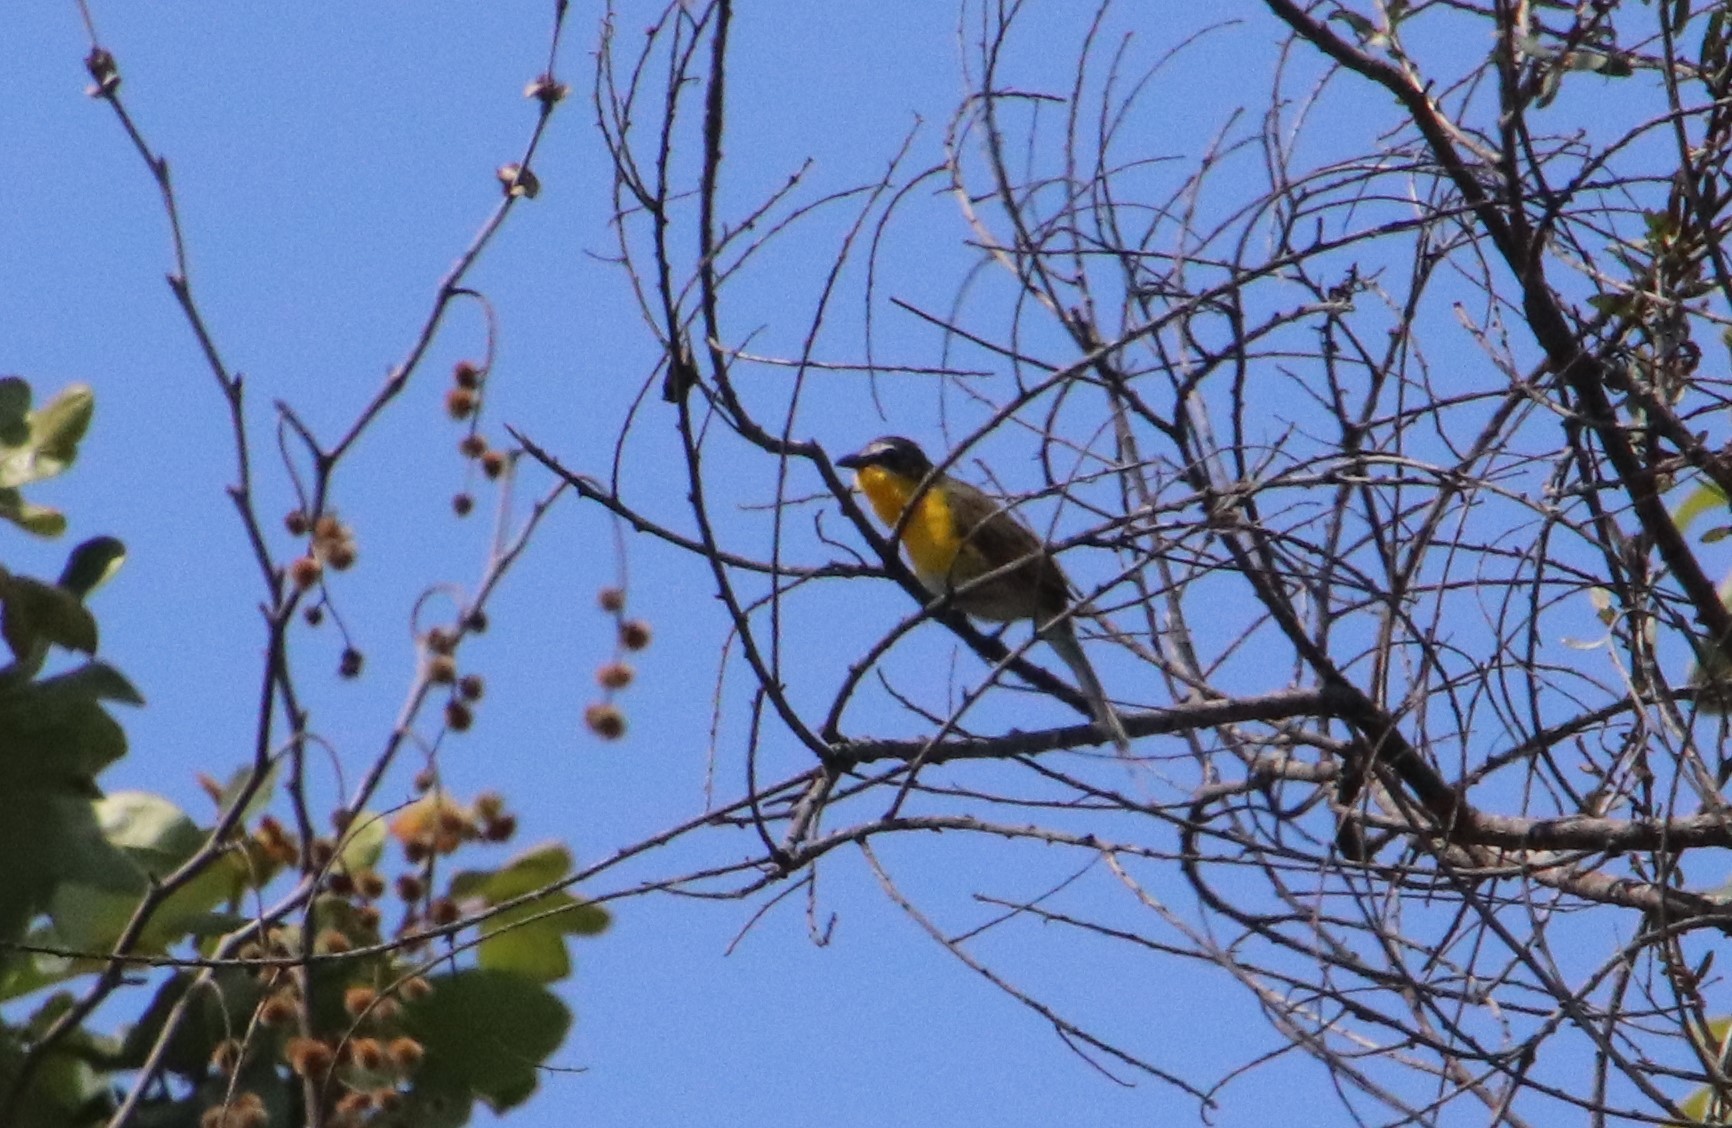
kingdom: Animalia
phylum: Chordata
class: Aves
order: Passeriformes
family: Parulidae
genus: Icteria
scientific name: Icteria virens
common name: Yellow-breasted chat
